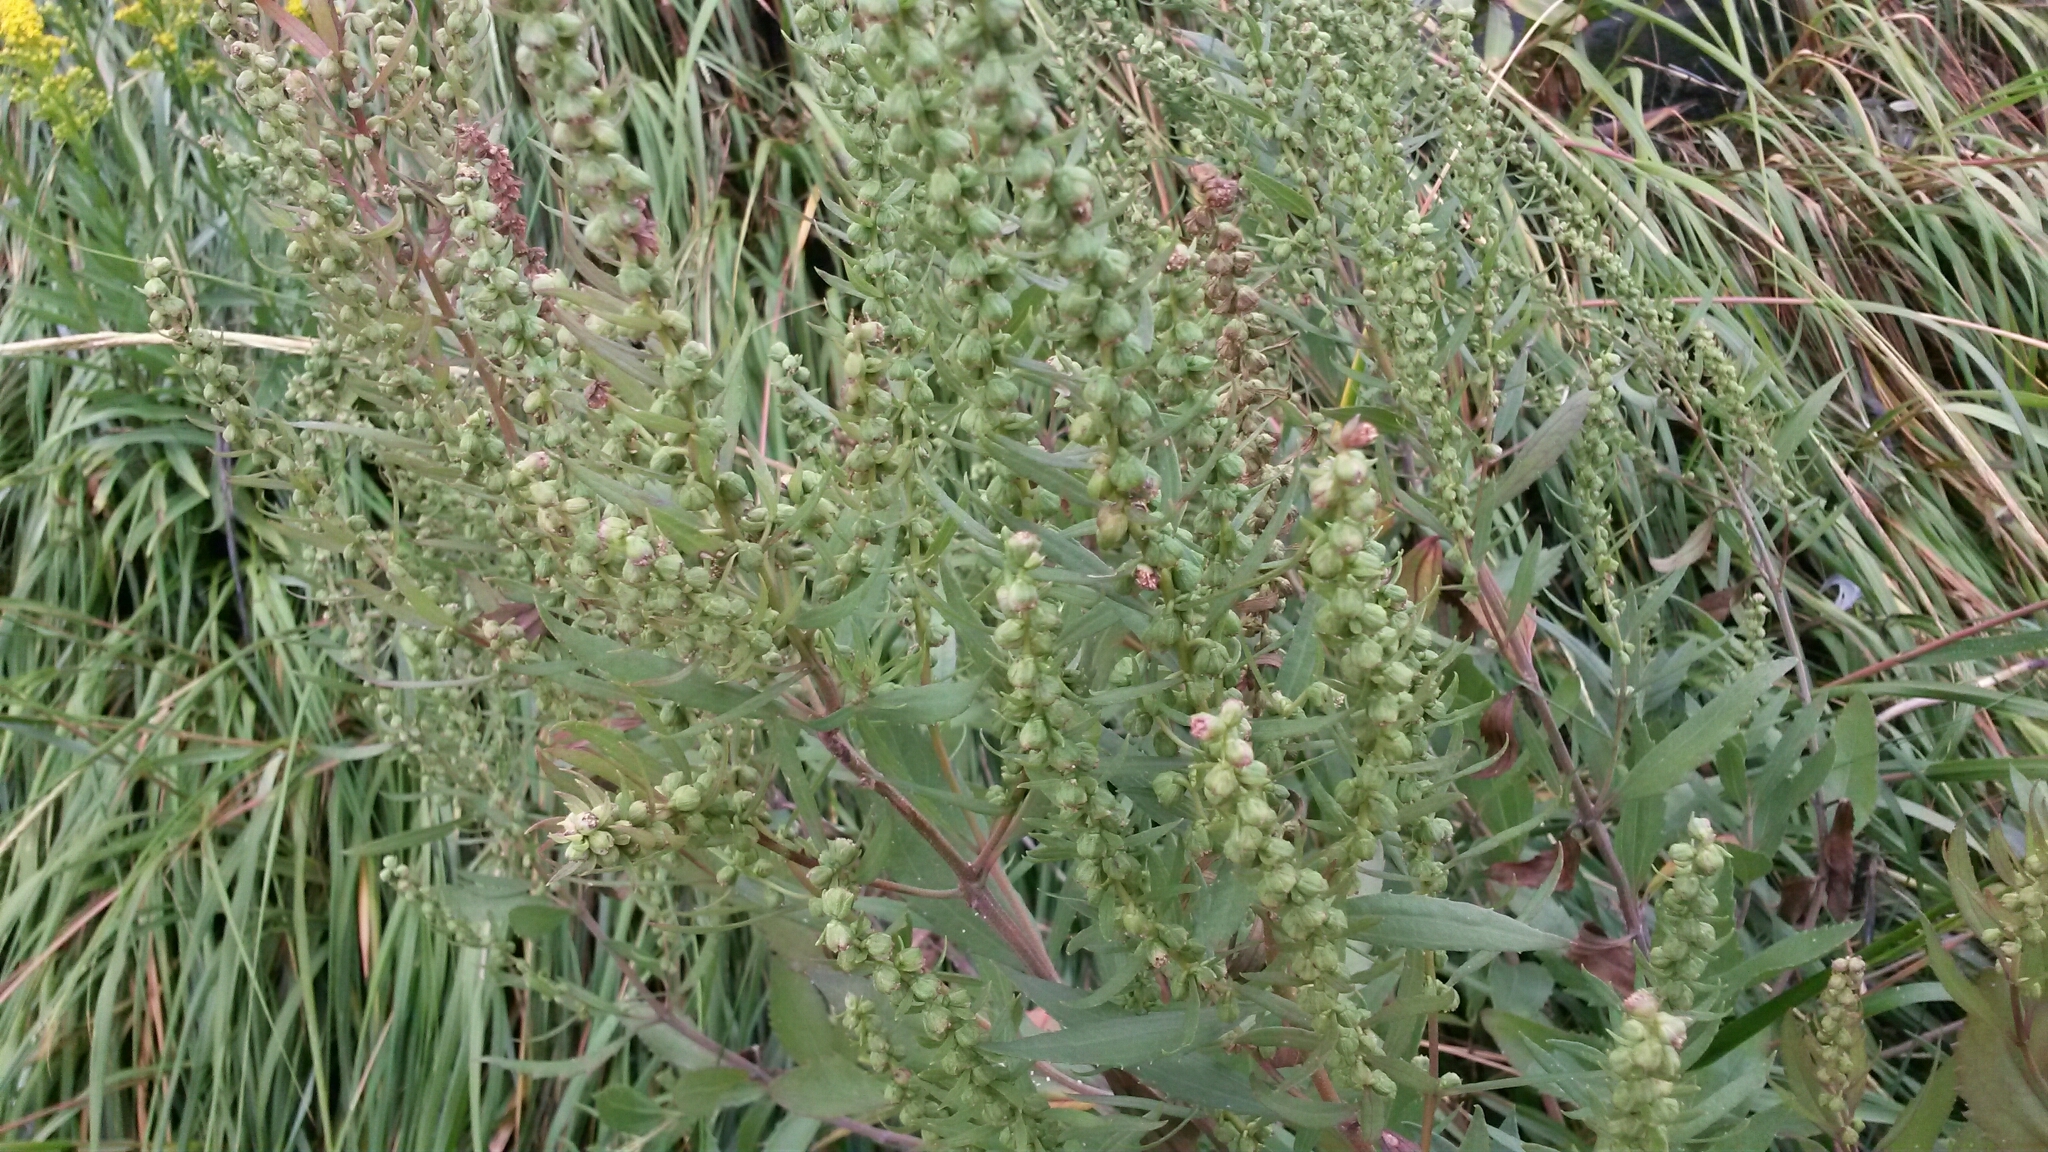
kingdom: Plantae
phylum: Tracheophyta
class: Magnoliopsida
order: Asterales
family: Asteraceae
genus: Iva
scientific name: Iva frutescens
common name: Big-leaved marsh-elder
